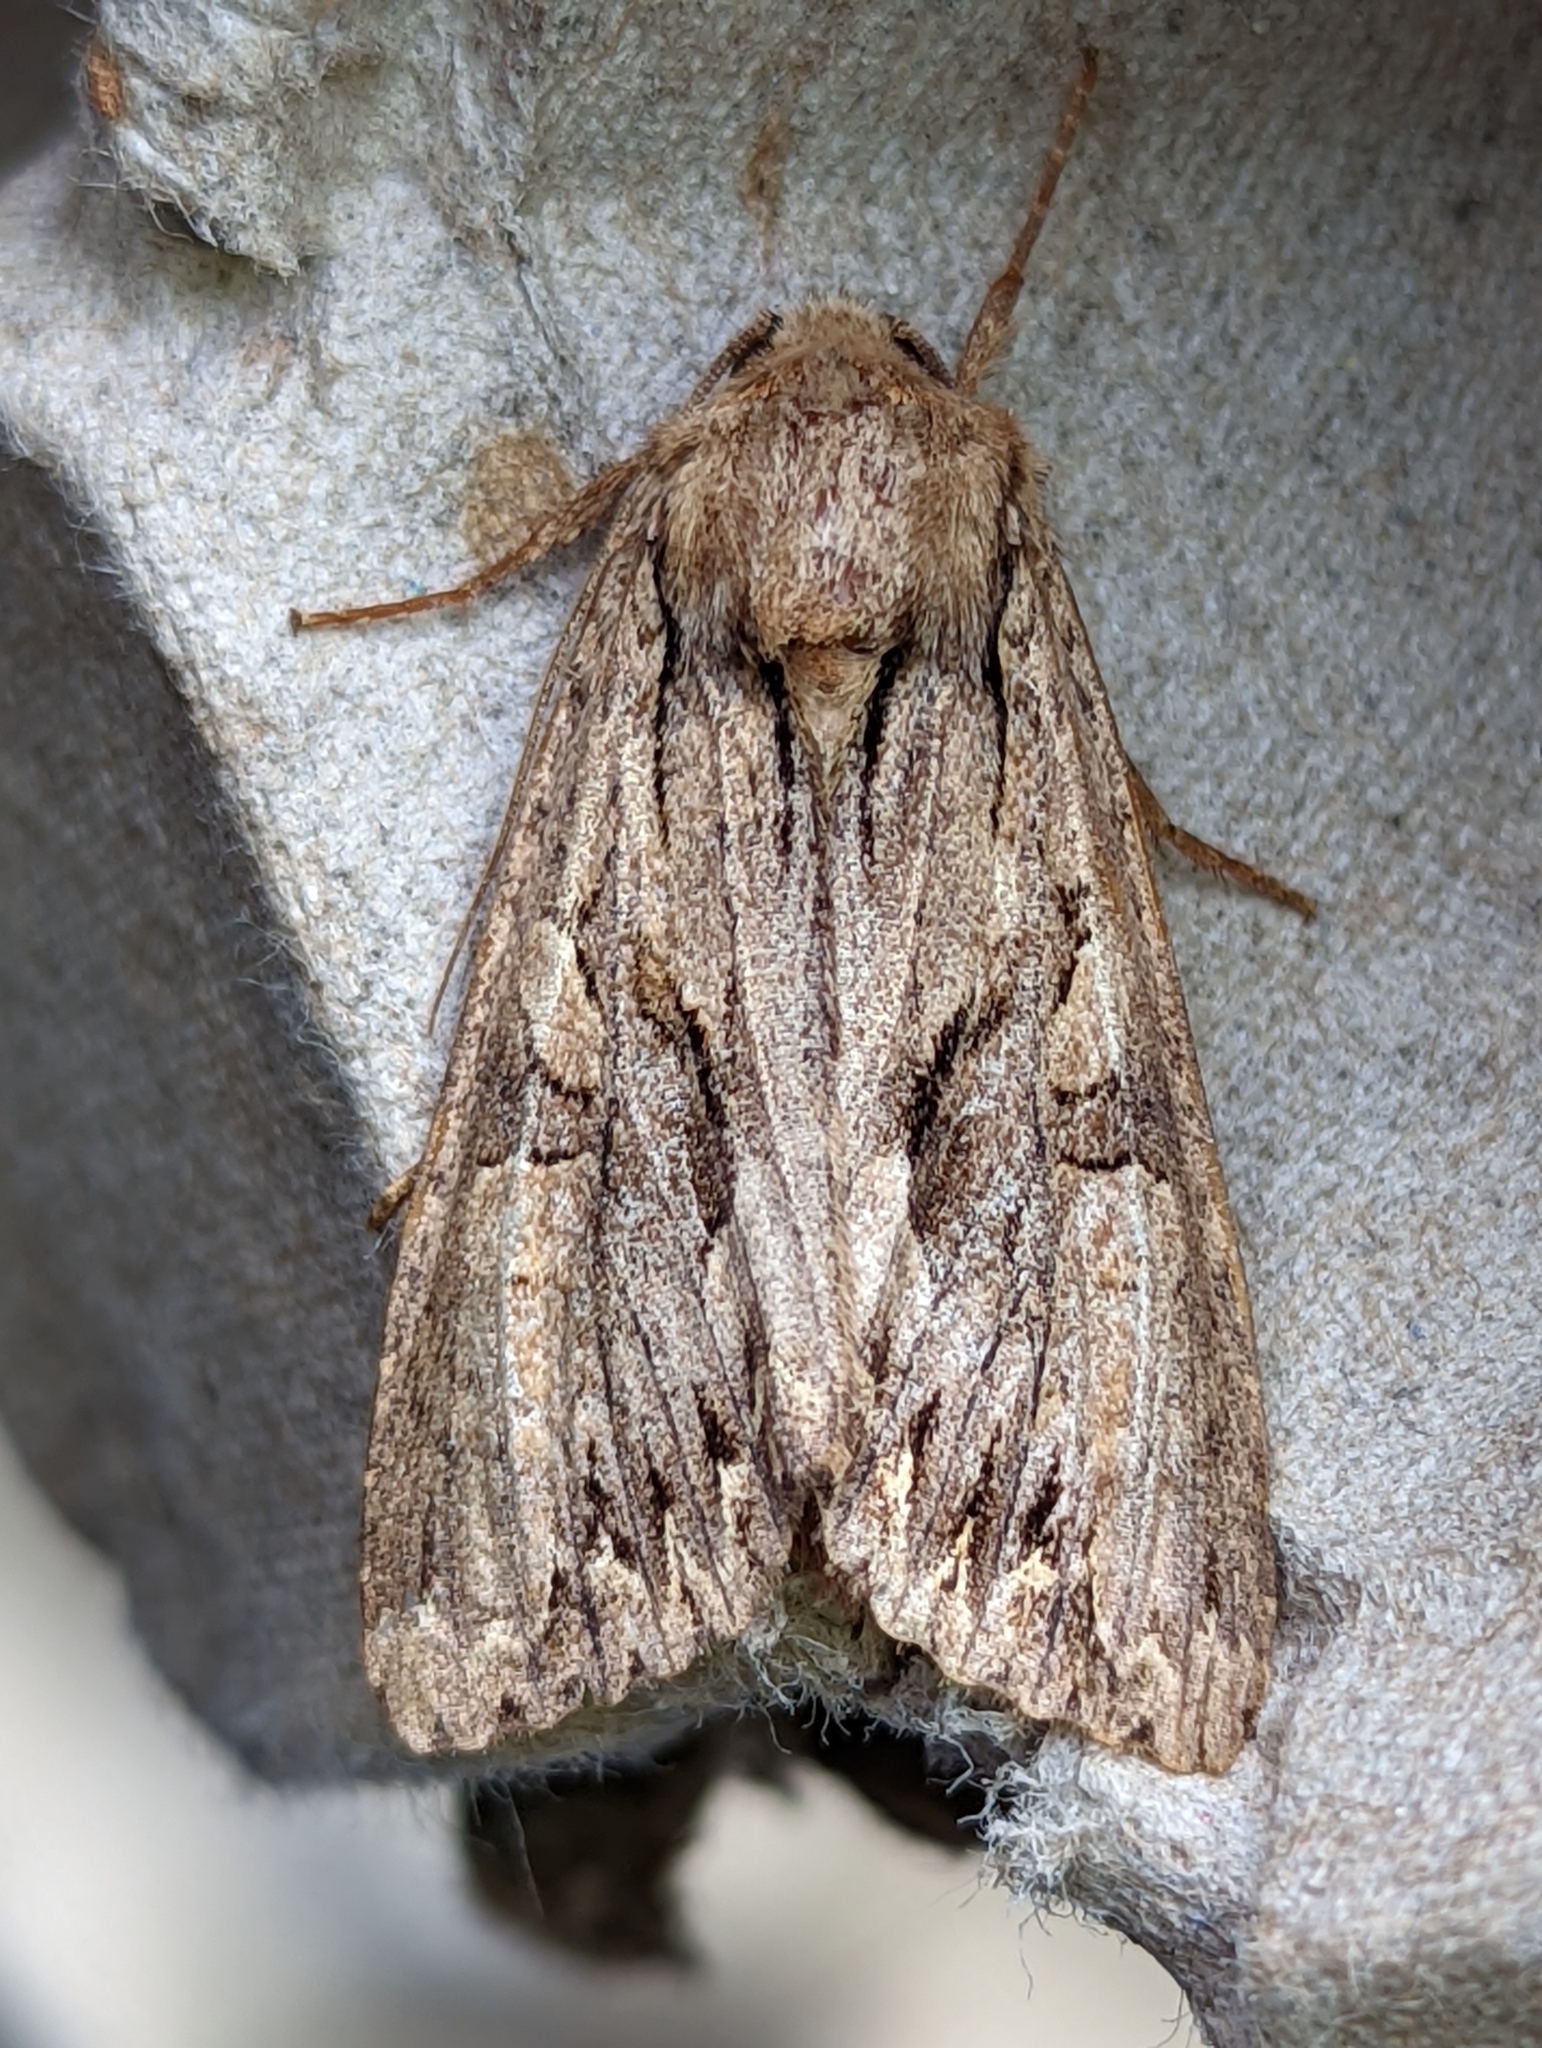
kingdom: Animalia
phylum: Arthropoda
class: Insecta
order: Lepidoptera
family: Noctuidae
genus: Apamea
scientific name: Apamea monoglypha
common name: Dark arches
